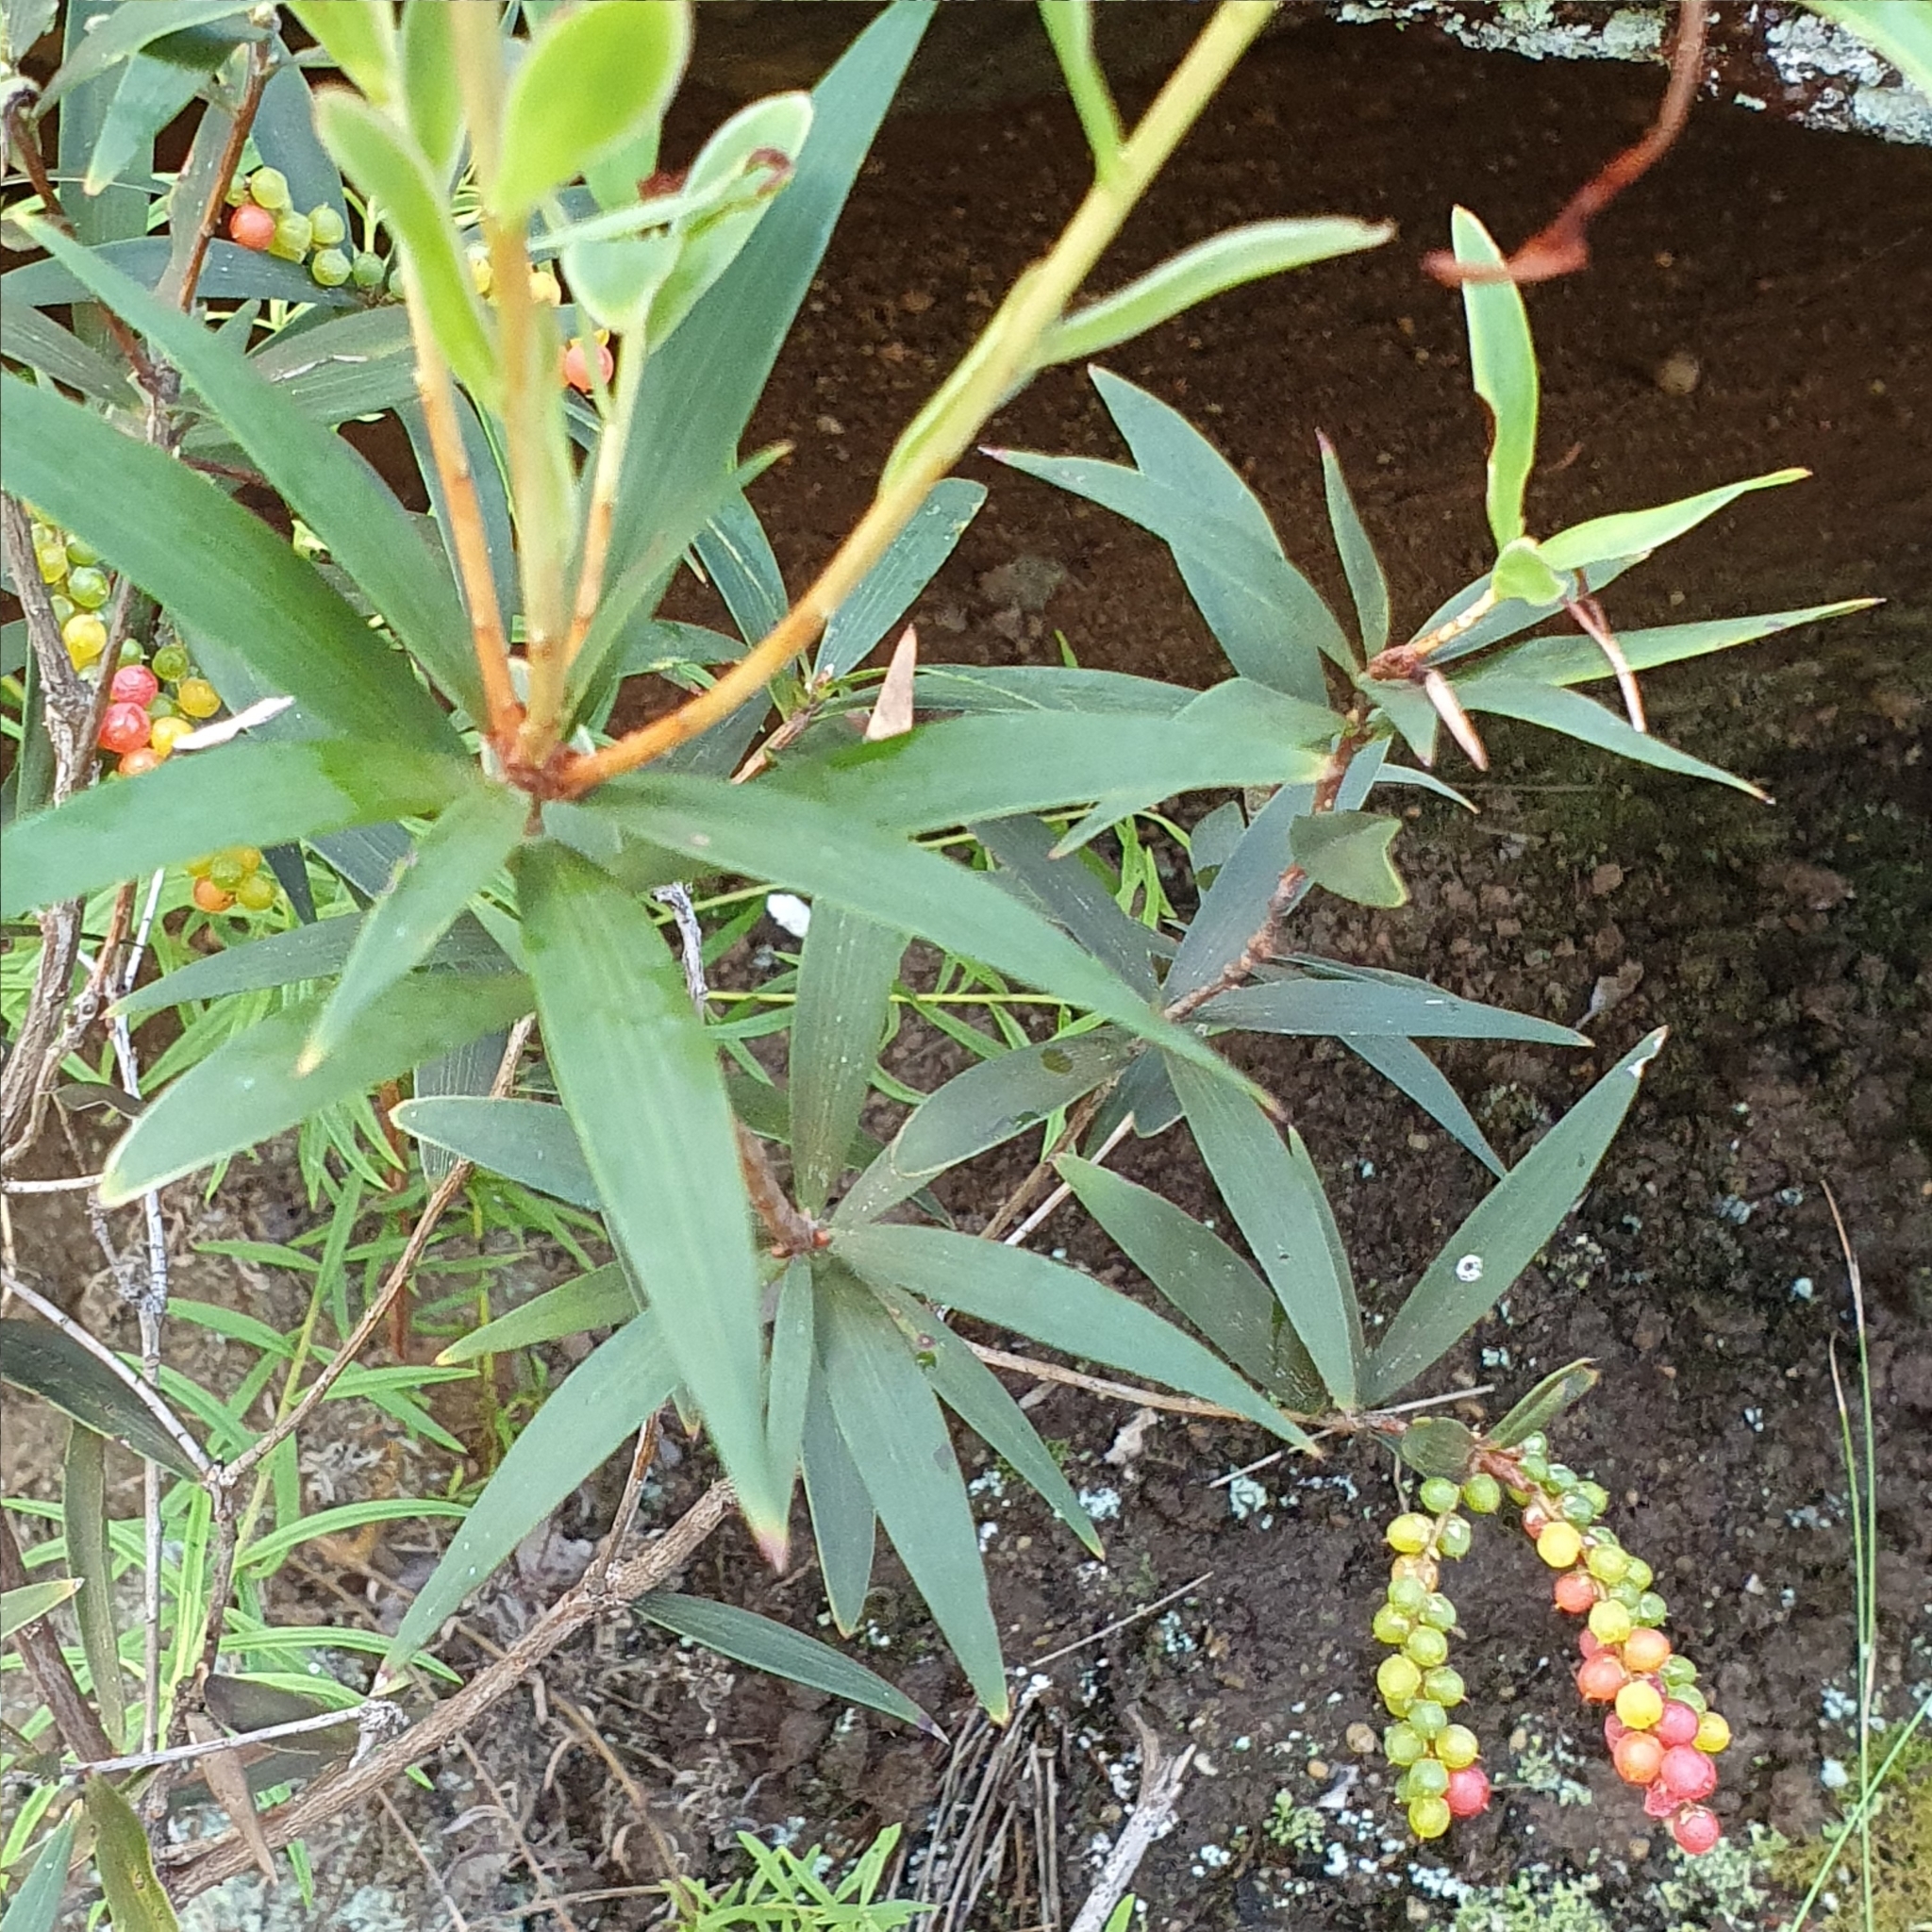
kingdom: Plantae
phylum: Tracheophyta
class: Magnoliopsida
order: Ericales
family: Ericaceae
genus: Leucopogon
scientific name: Leucopogon lanceolatus
